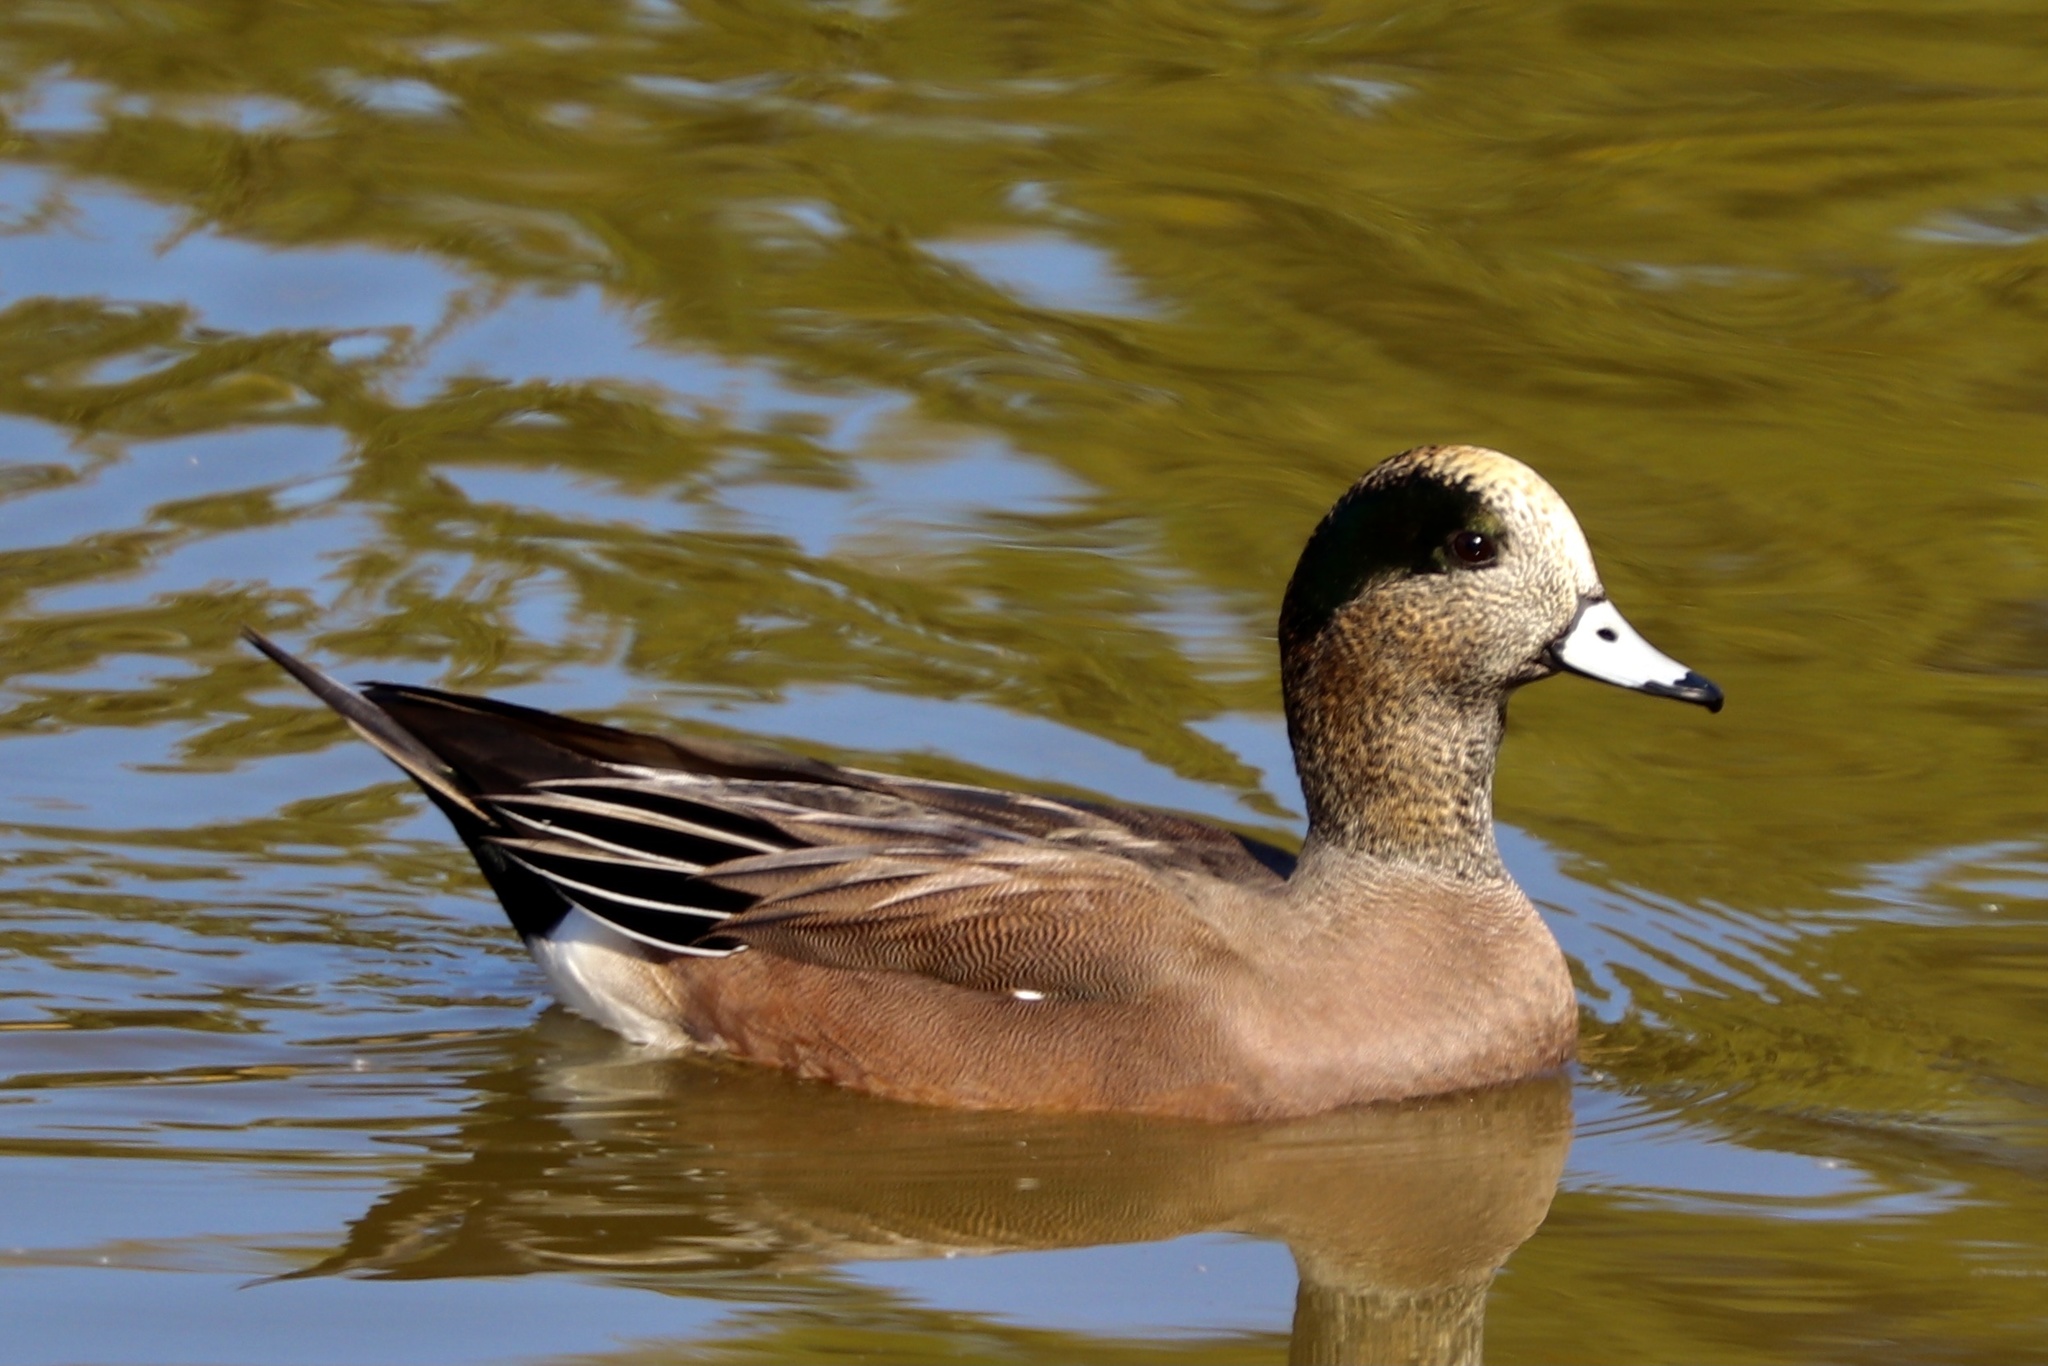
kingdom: Animalia
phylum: Chordata
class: Aves
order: Anseriformes
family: Anatidae
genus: Mareca
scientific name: Mareca americana
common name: American wigeon
